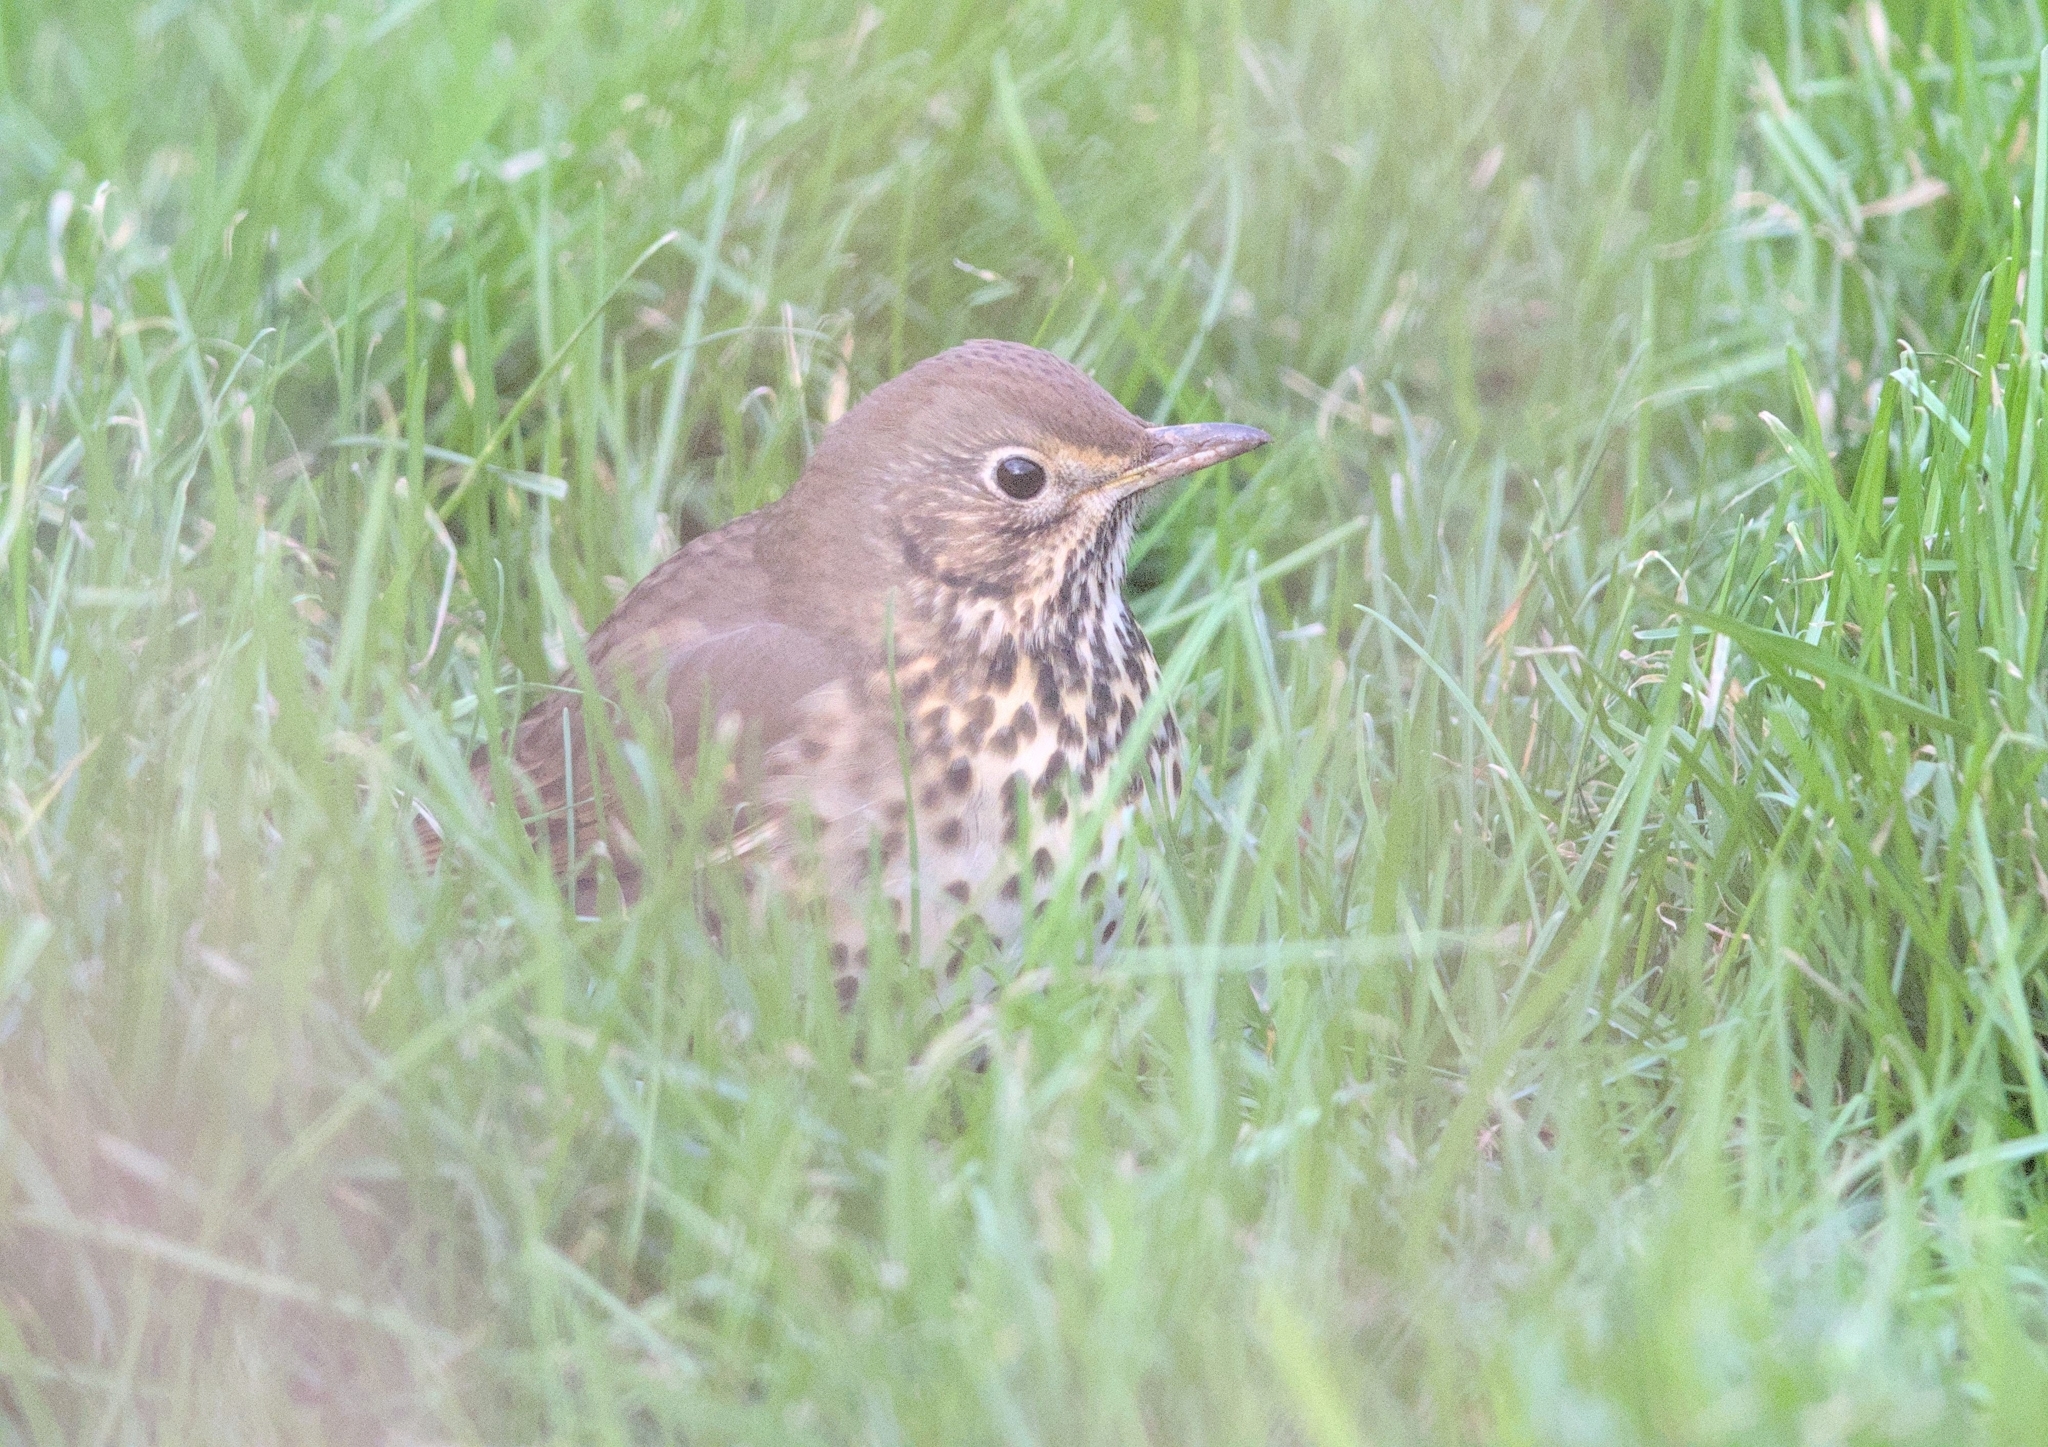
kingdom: Animalia
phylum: Chordata
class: Aves
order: Passeriformes
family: Turdidae
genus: Turdus
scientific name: Turdus philomelos
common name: Song thrush
